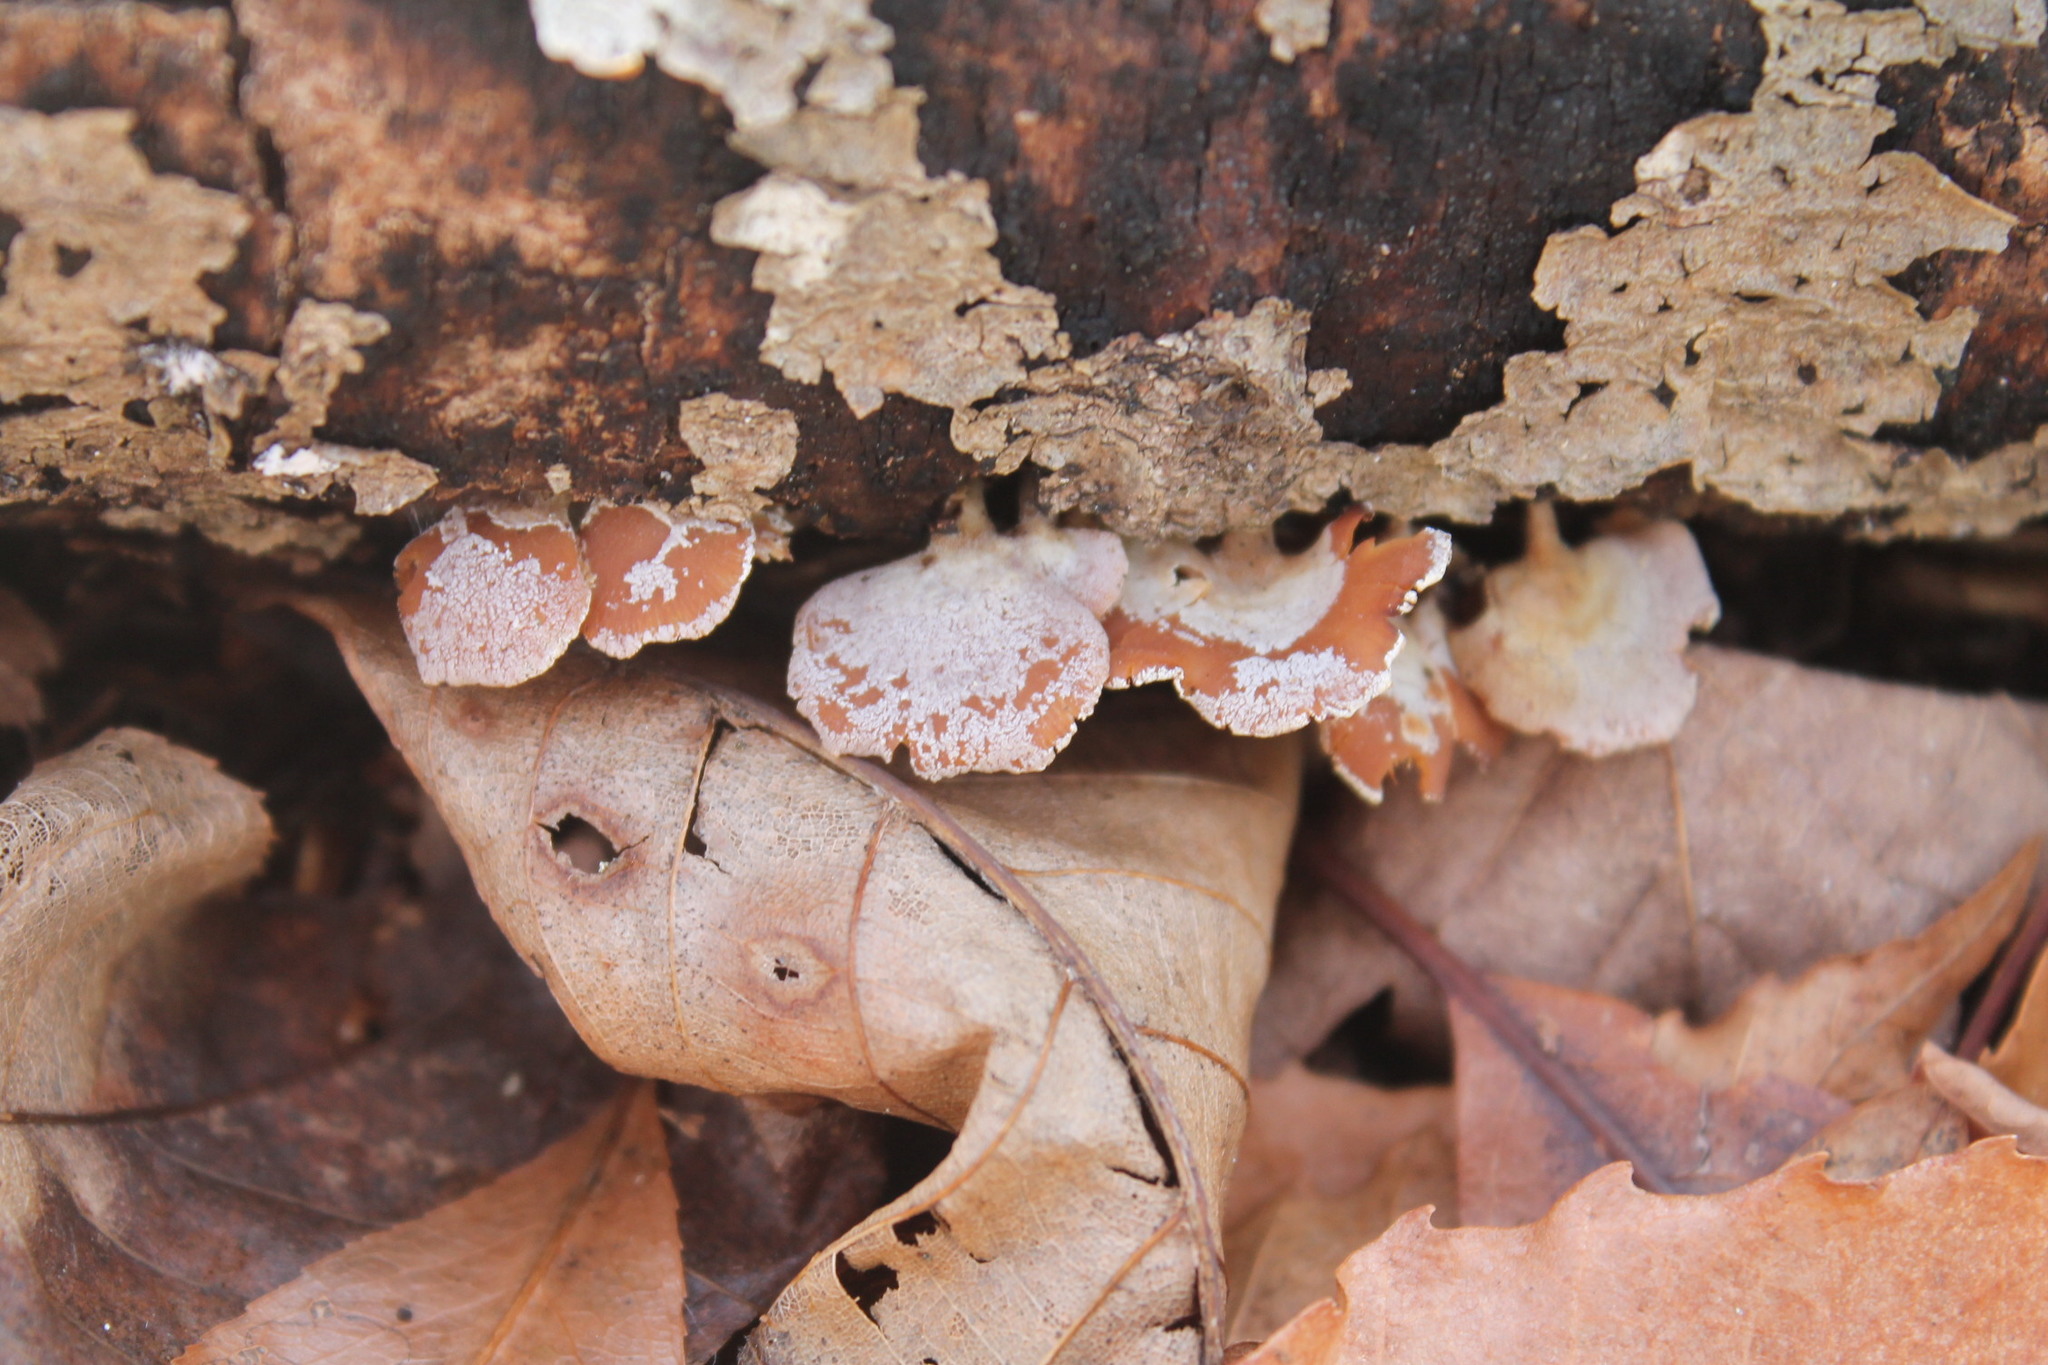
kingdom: Fungi
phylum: Basidiomycota
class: Agaricomycetes
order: Agaricales
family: Mycenaceae
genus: Panellus
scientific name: Panellus stipticus
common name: Bitter oysterling
